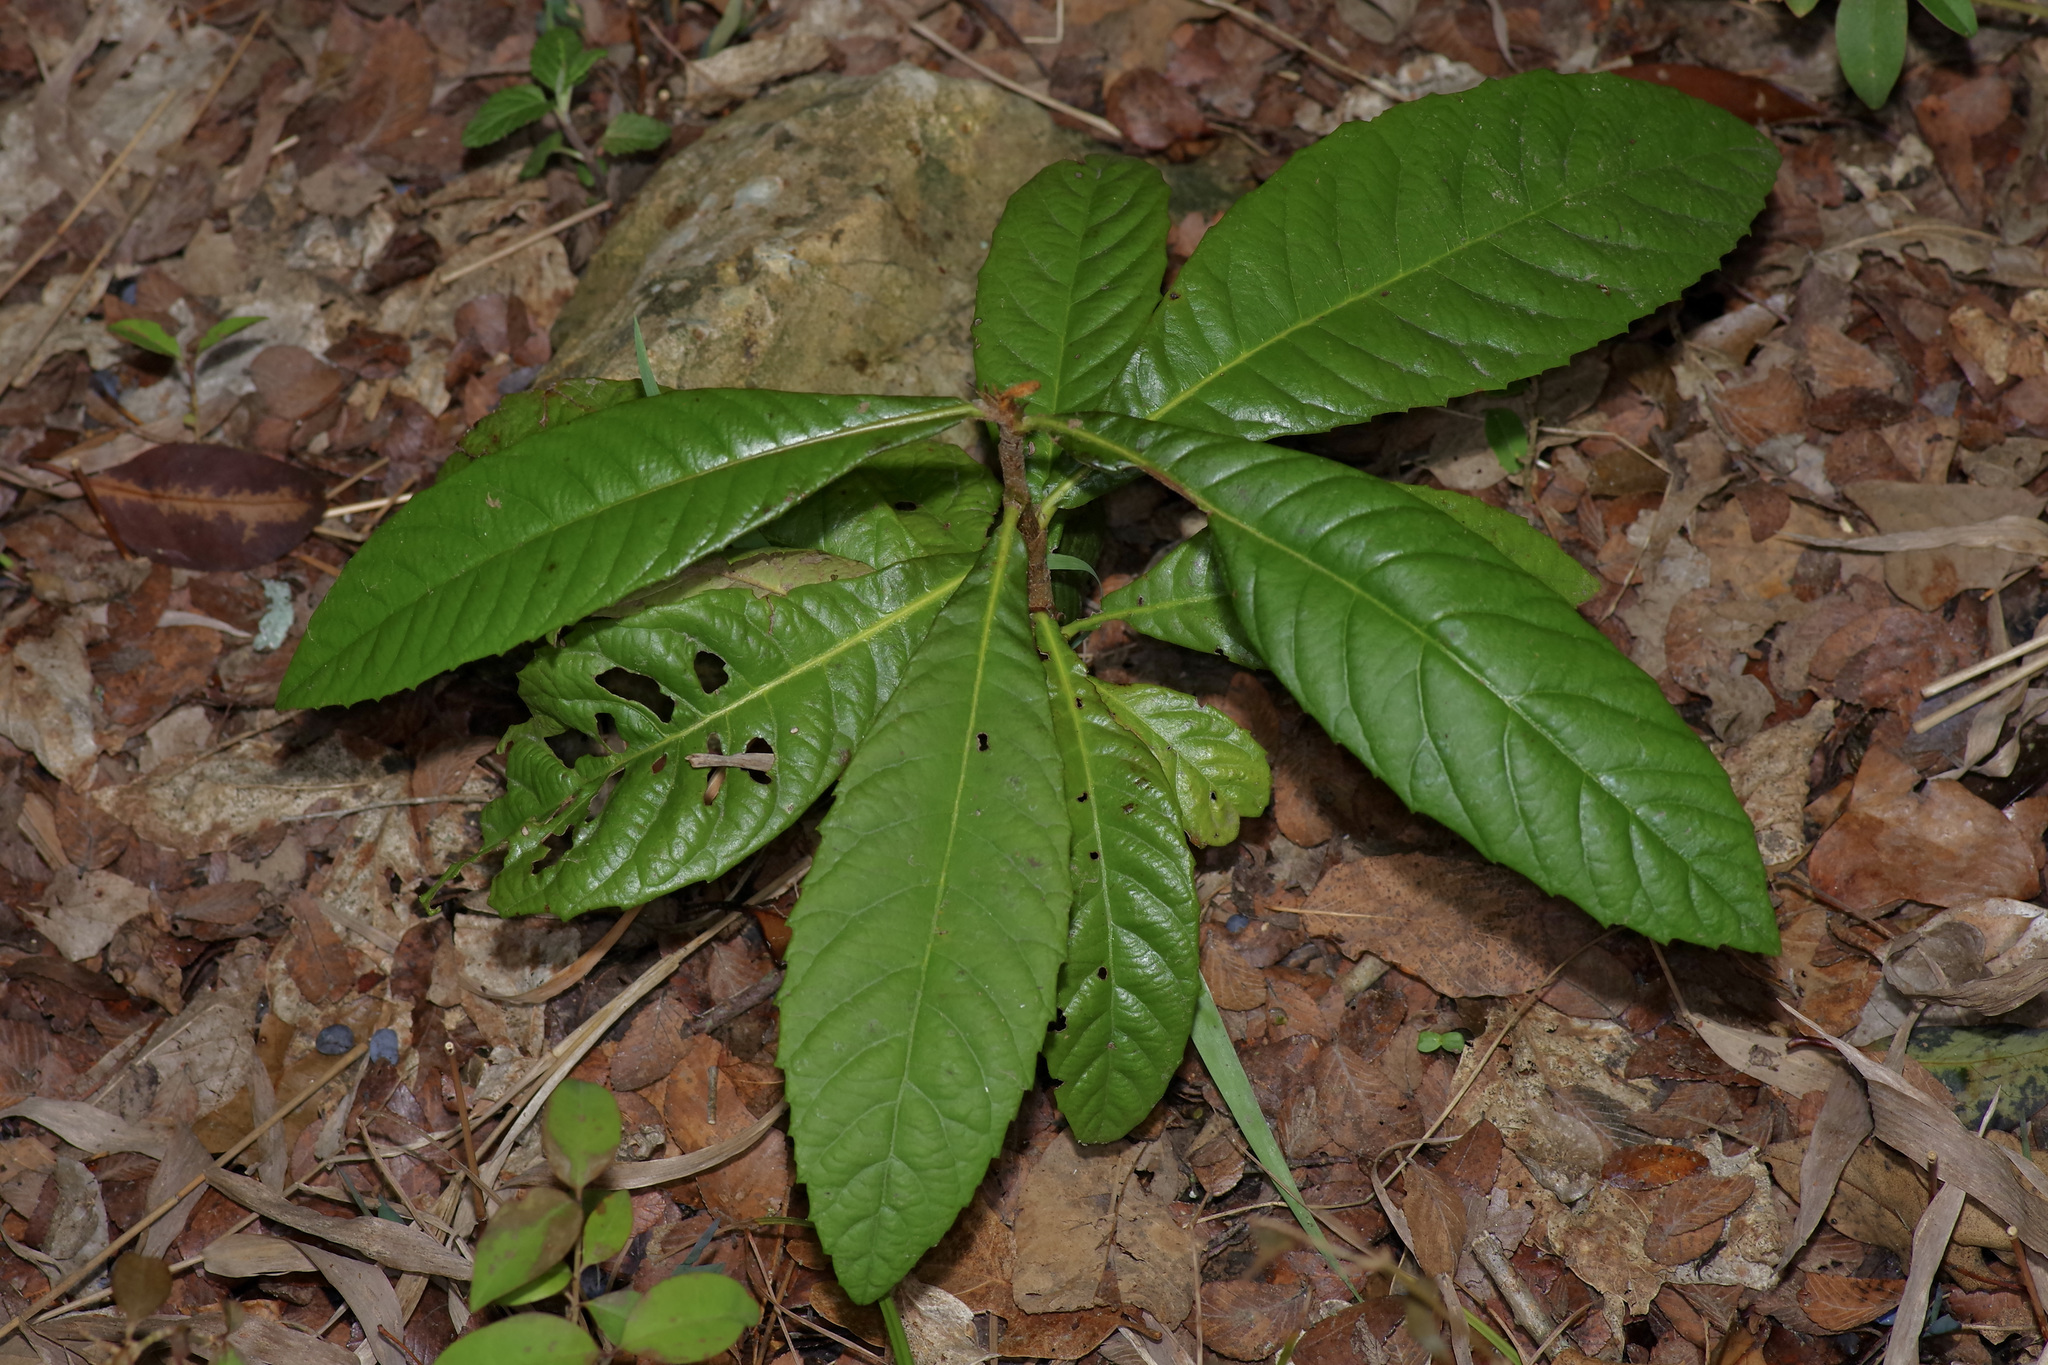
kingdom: Plantae
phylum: Tracheophyta
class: Magnoliopsida
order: Rosales
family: Rosaceae
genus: Rhaphiolepis
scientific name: Rhaphiolepis bibas
